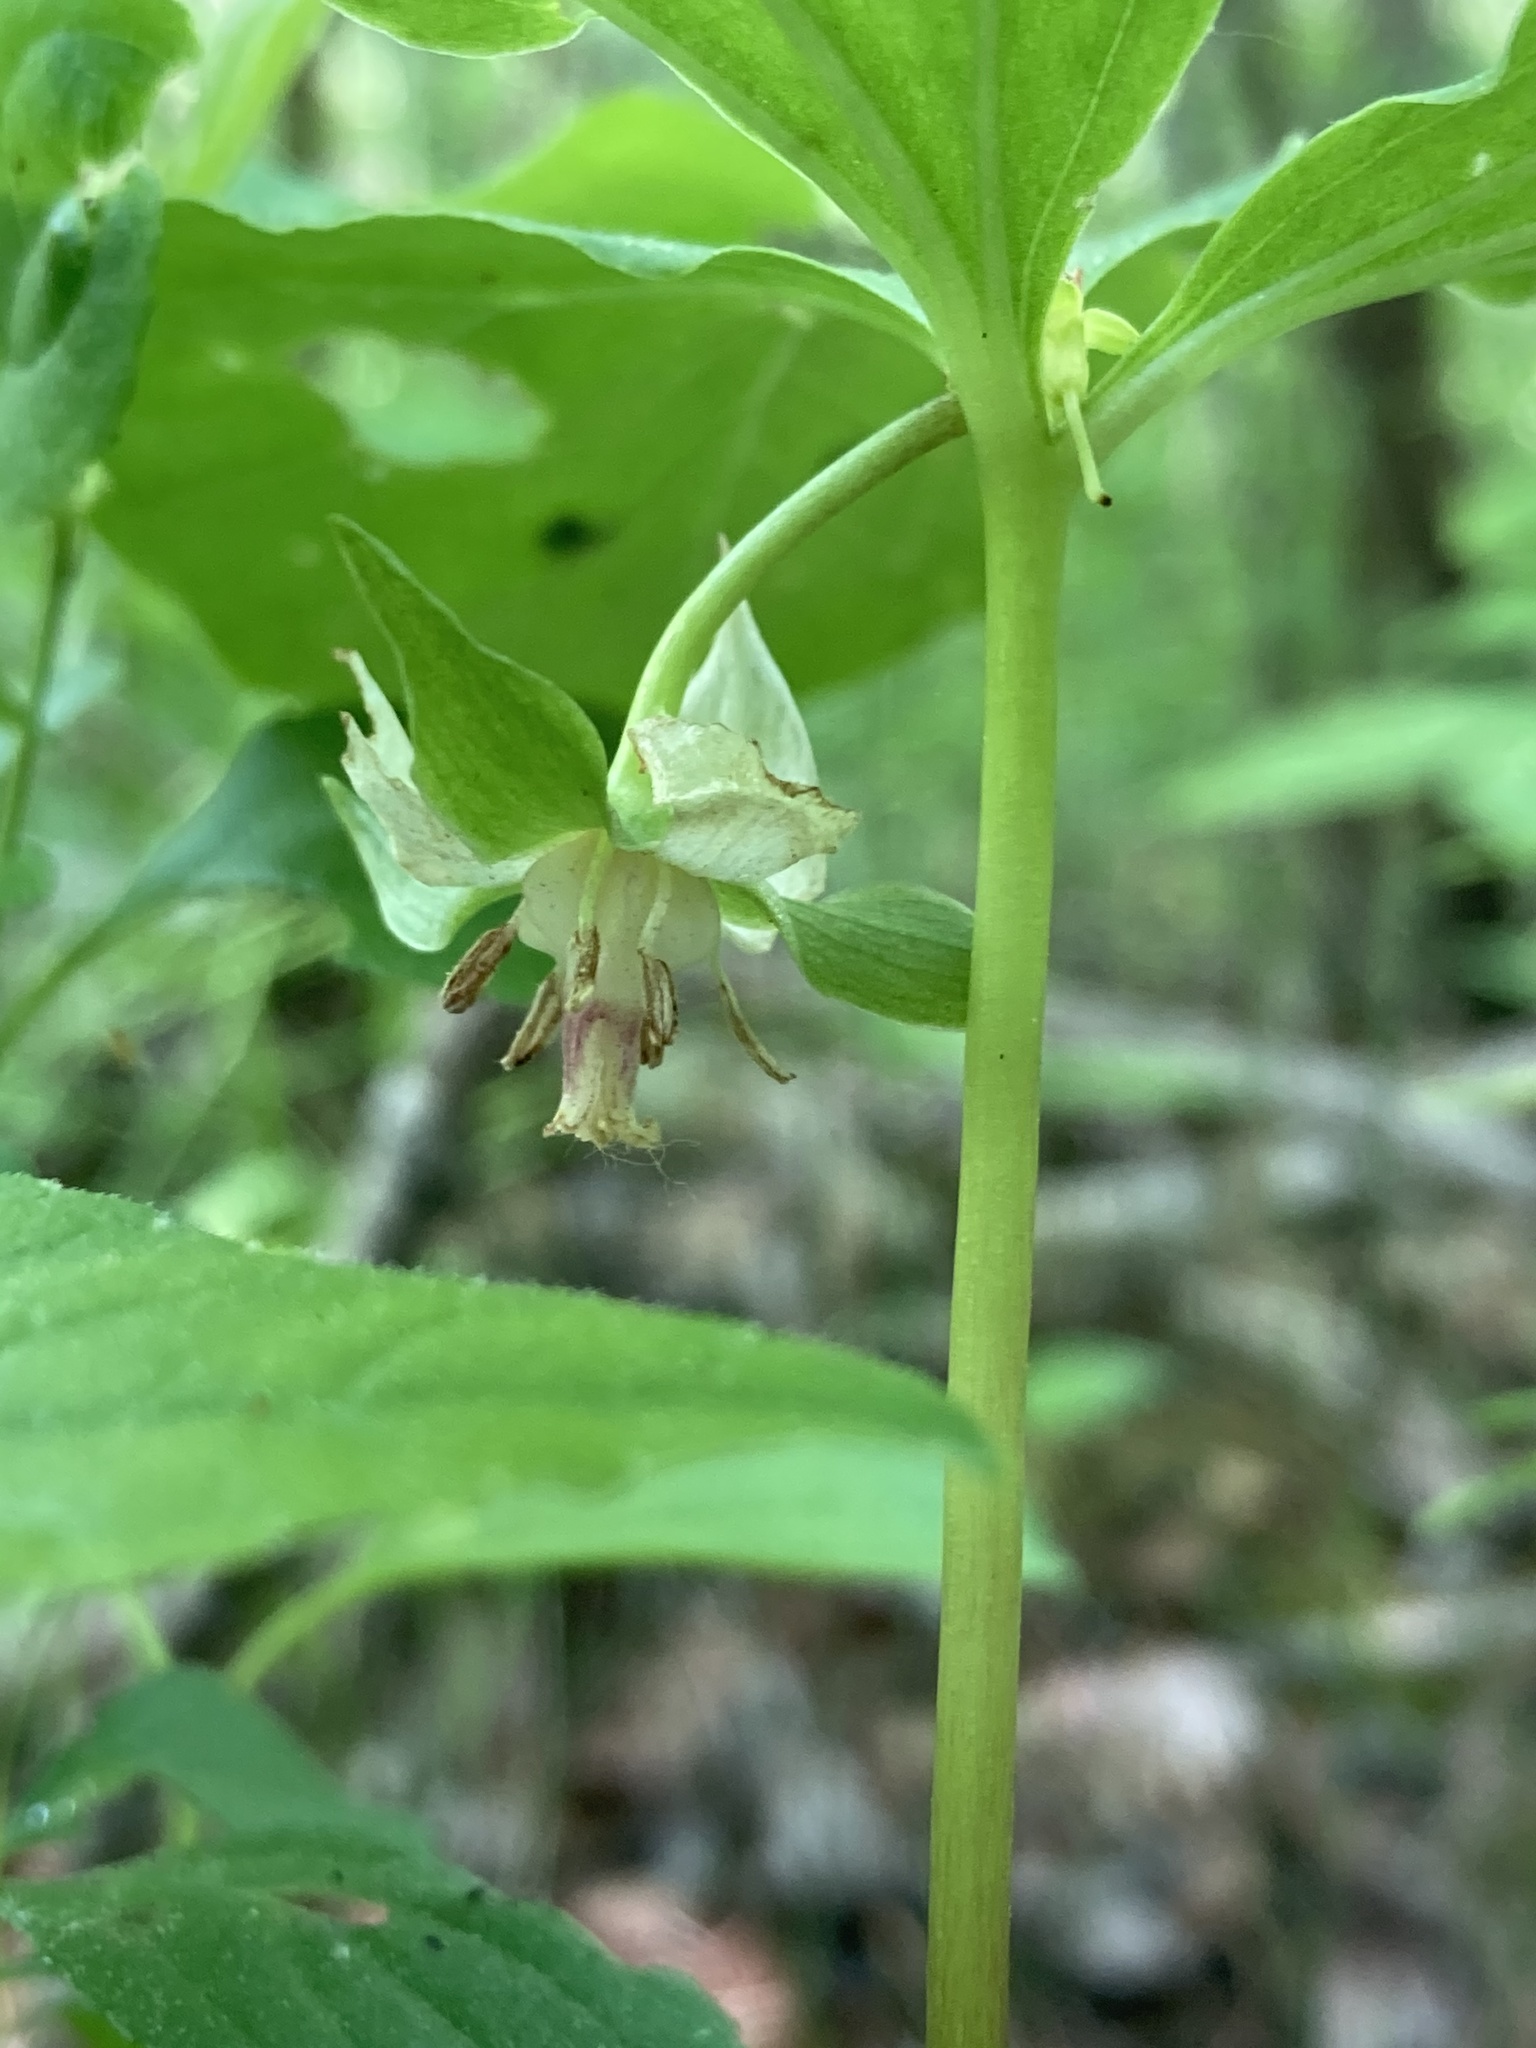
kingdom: Plantae
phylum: Tracheophyta
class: Liliopsida
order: Liliales
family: Melanthiaceae
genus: Trillium
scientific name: Trillium cernuum
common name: Nodding trillium
